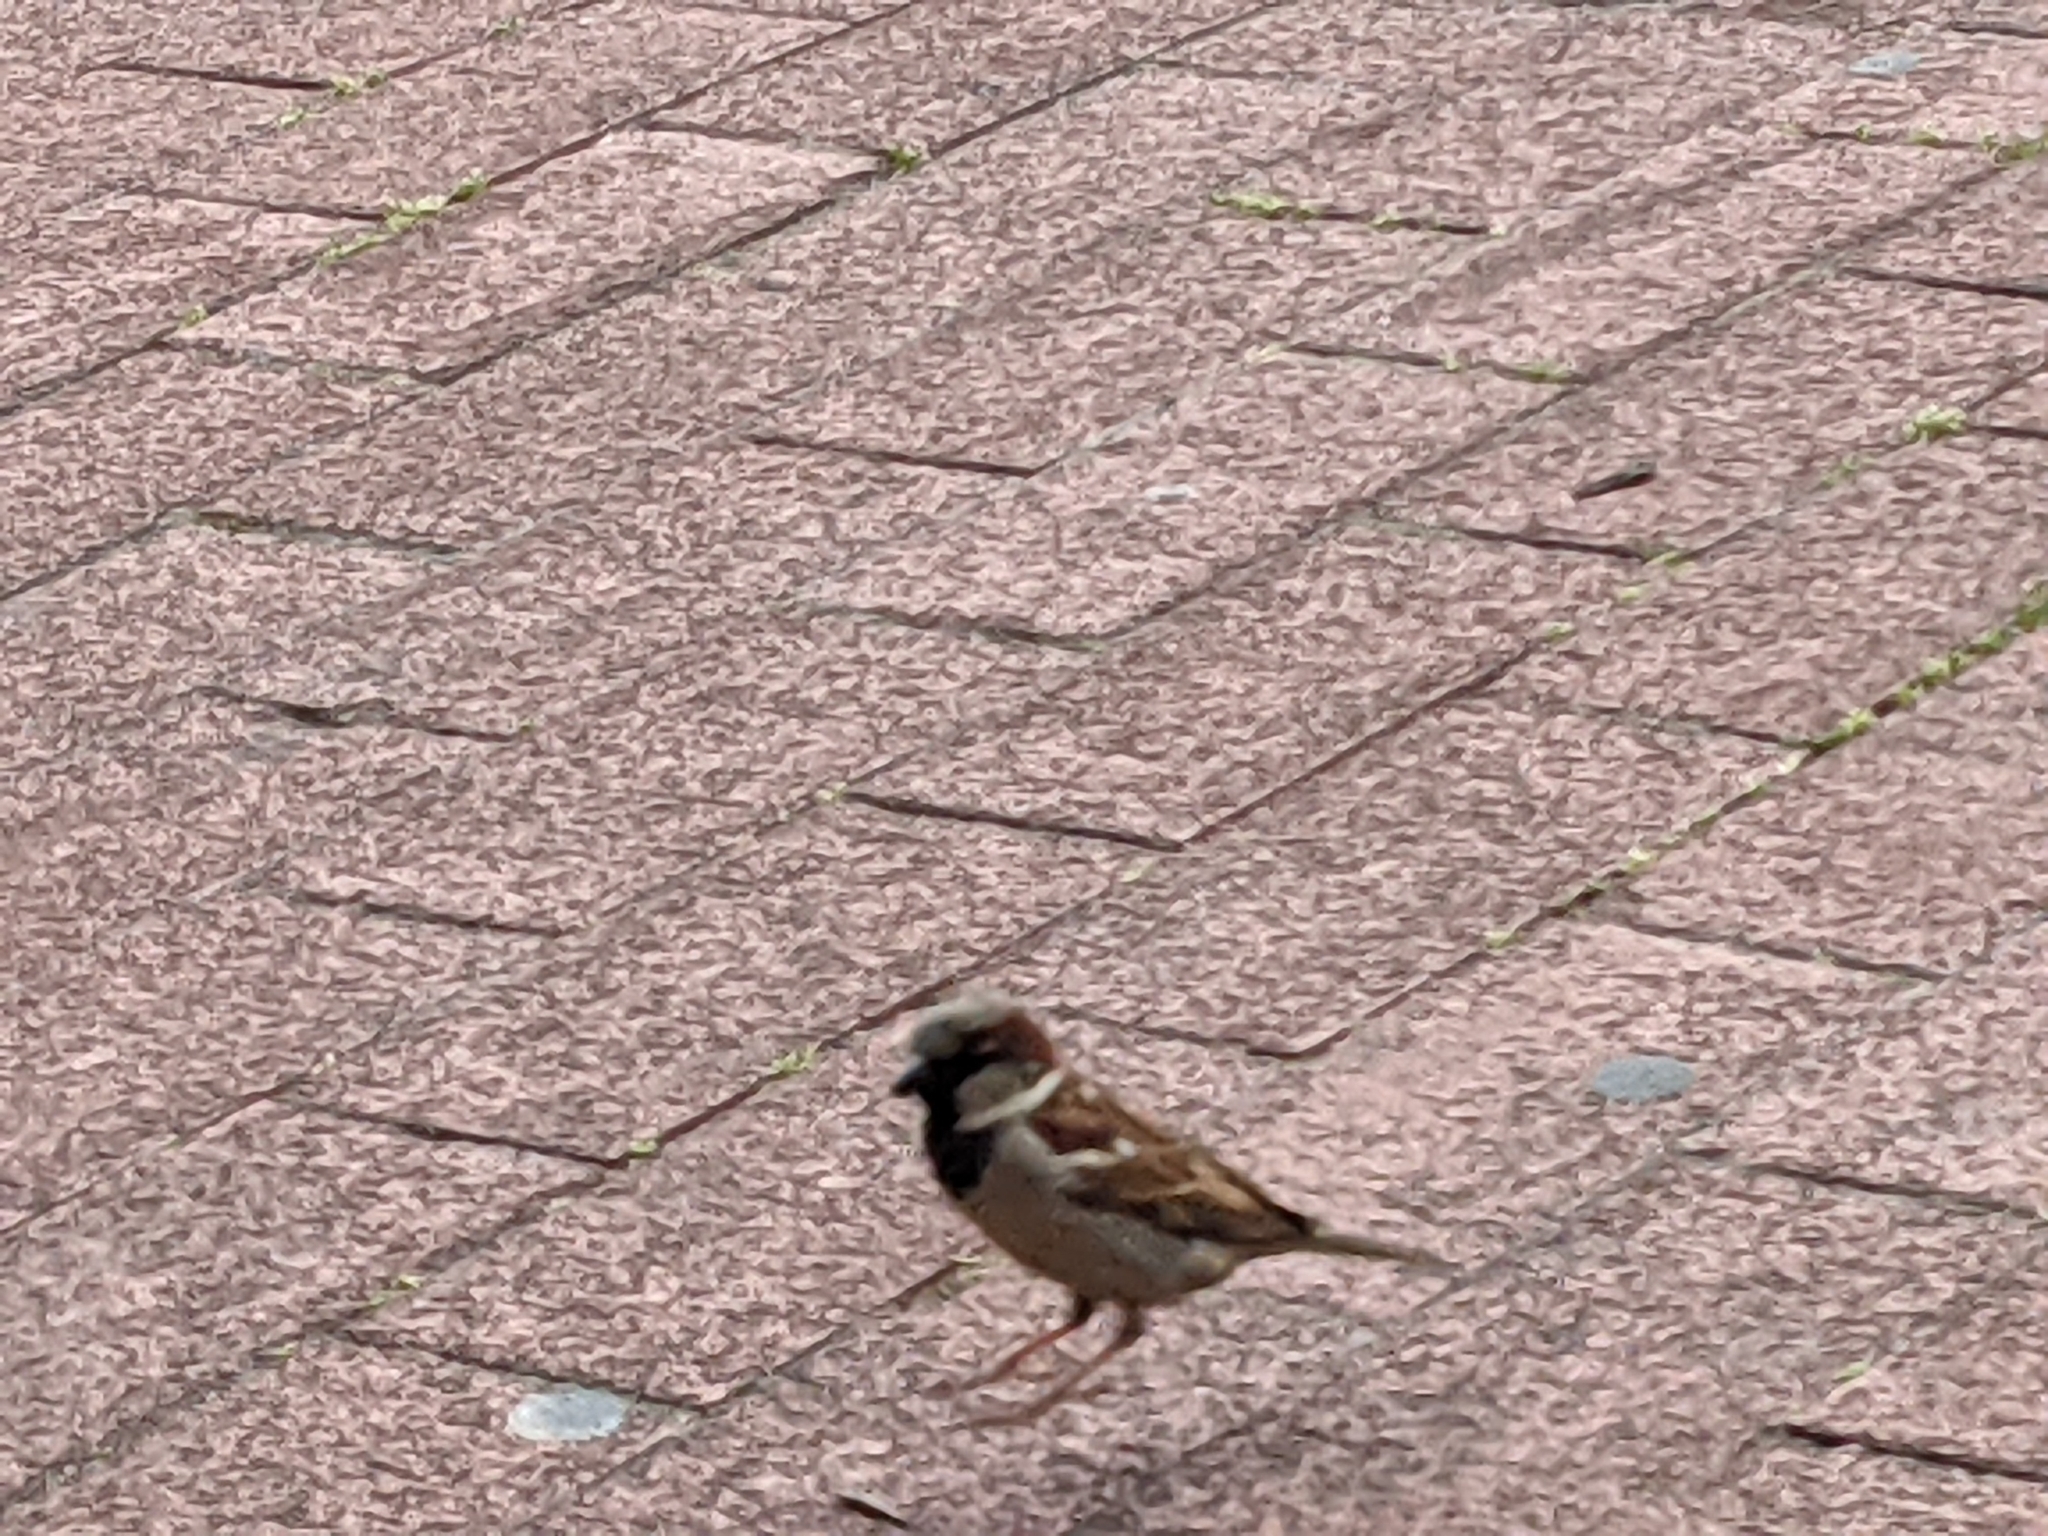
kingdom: Animalia
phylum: Chordata
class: Aves
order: Passeriformes
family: Passeridae
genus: Passer
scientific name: Passer domesticus
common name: House sparrow
